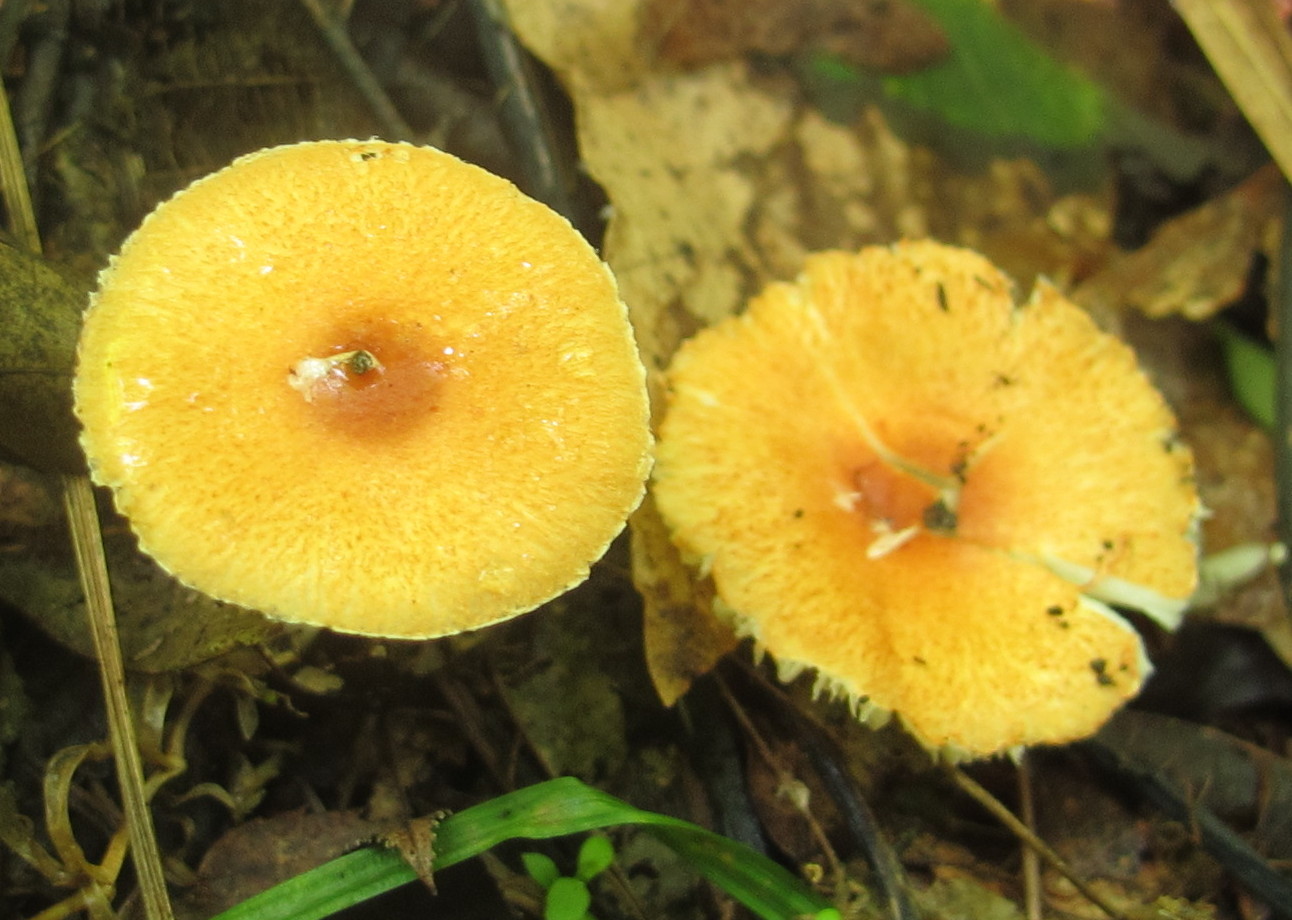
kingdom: Fungi
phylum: Basidiomycota
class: Agaricomycetes
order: Agaricales
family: Agaricaceae
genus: Leucoagaricus
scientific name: Leucoagaricus rubrotinctus
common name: Ruby dapperling
